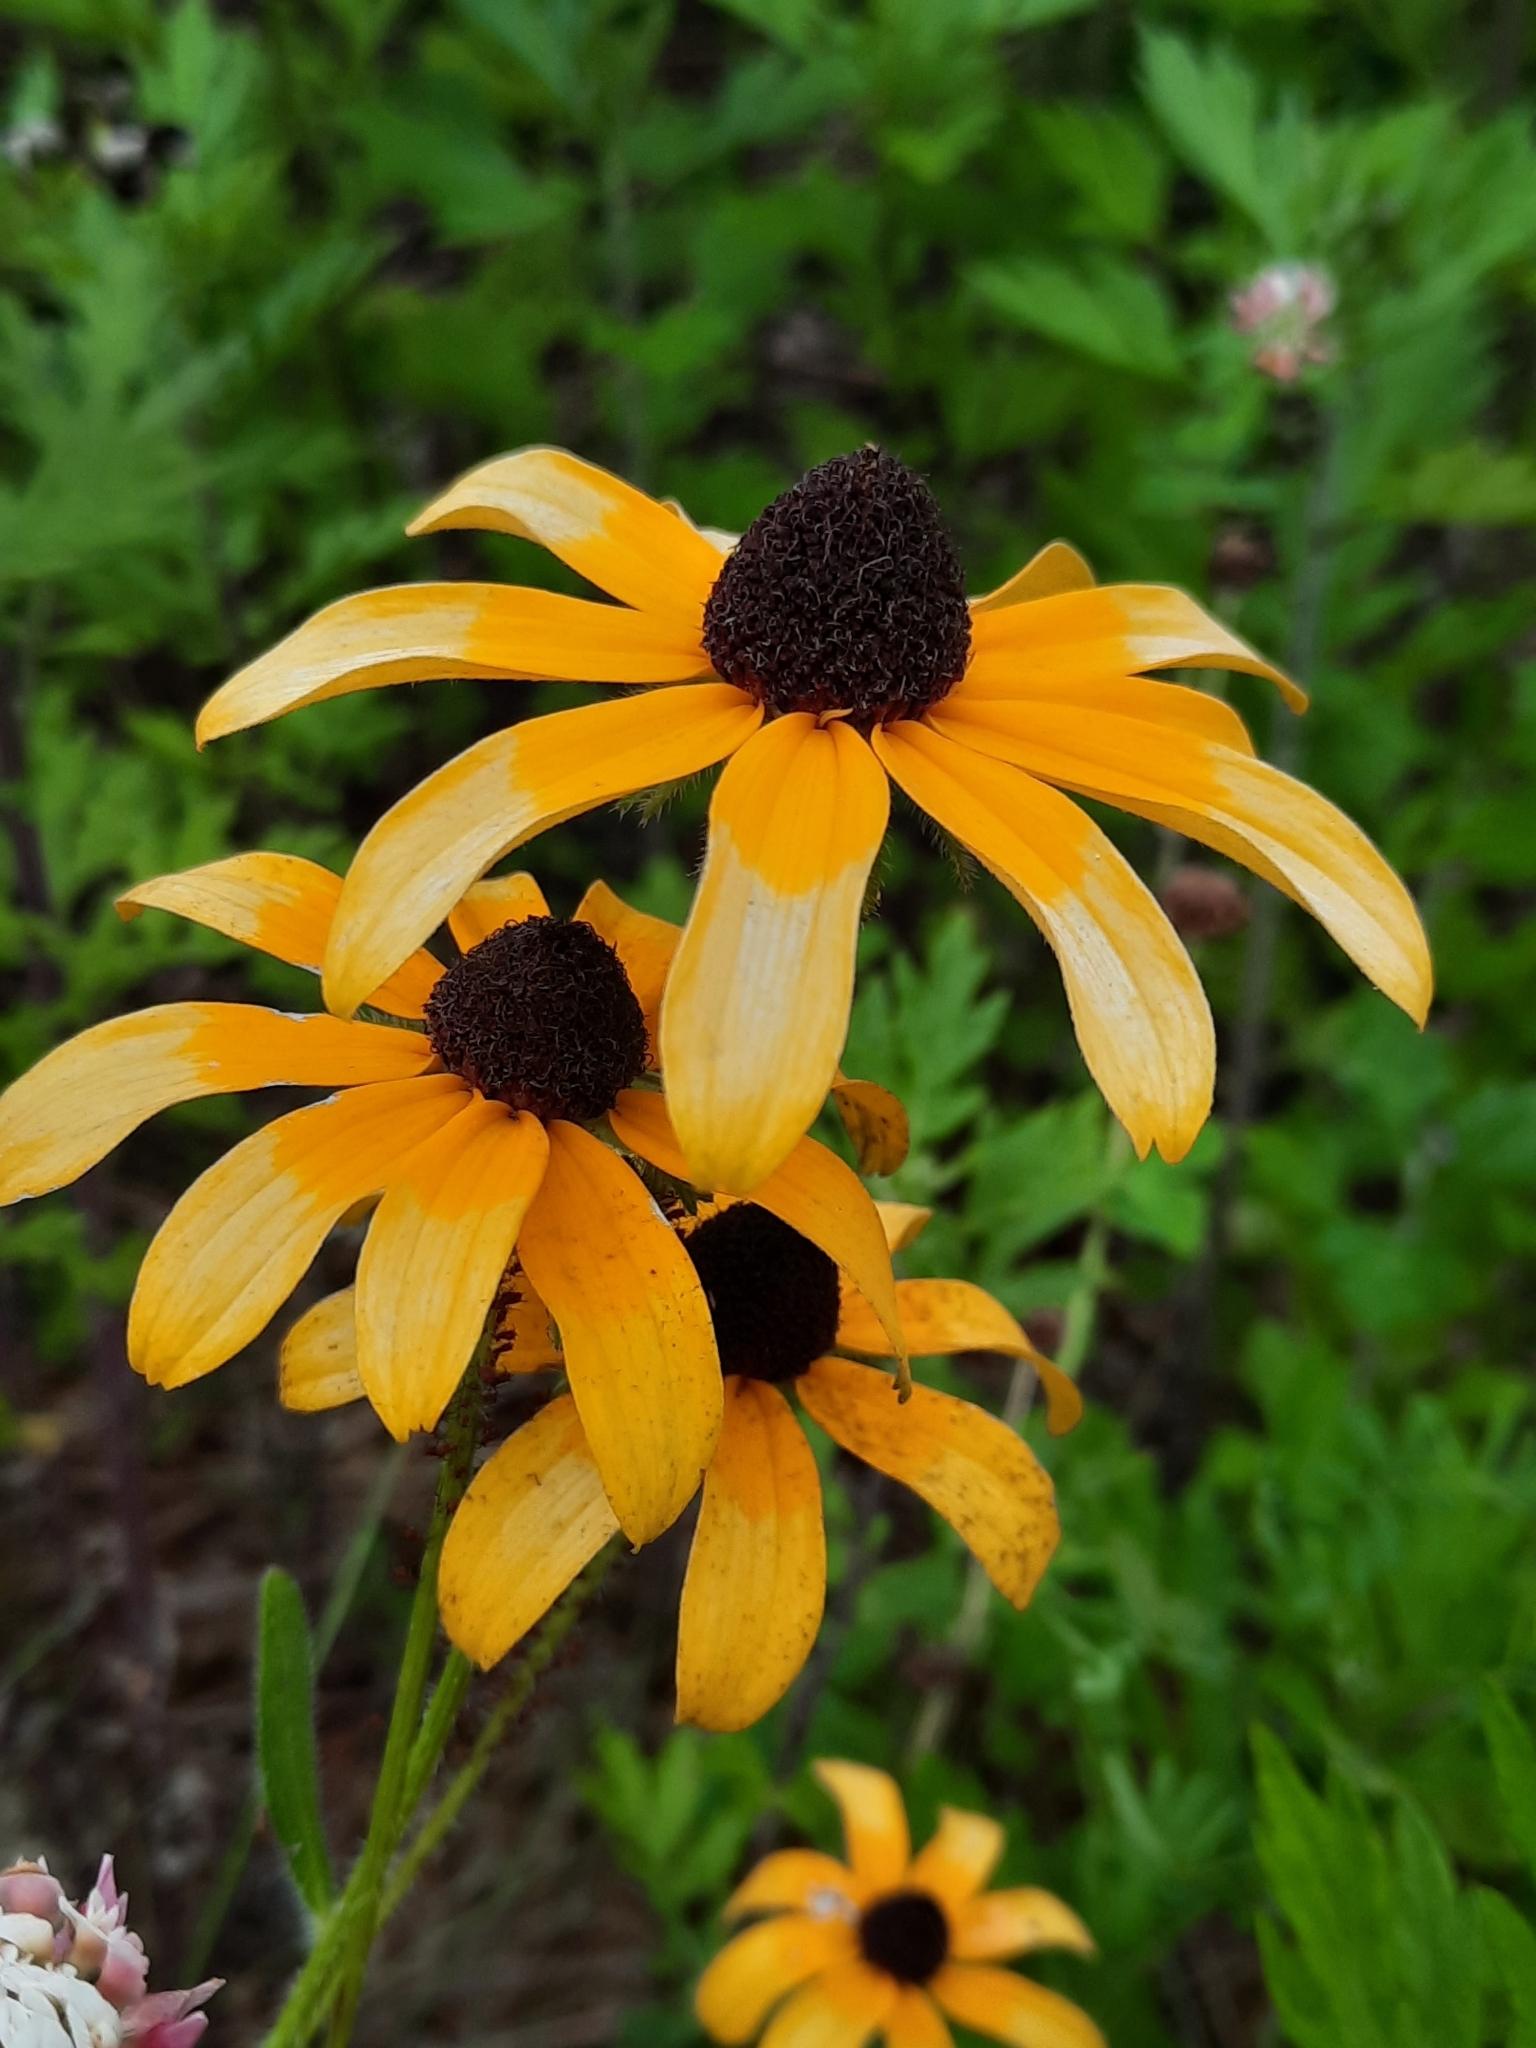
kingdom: Plantae
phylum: Tracheophyta
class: Magnoliopsida
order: Asterales
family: Asteraceae
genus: Rudbeckia
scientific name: Rudbeckia hirta
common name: Black-eyed-susan
